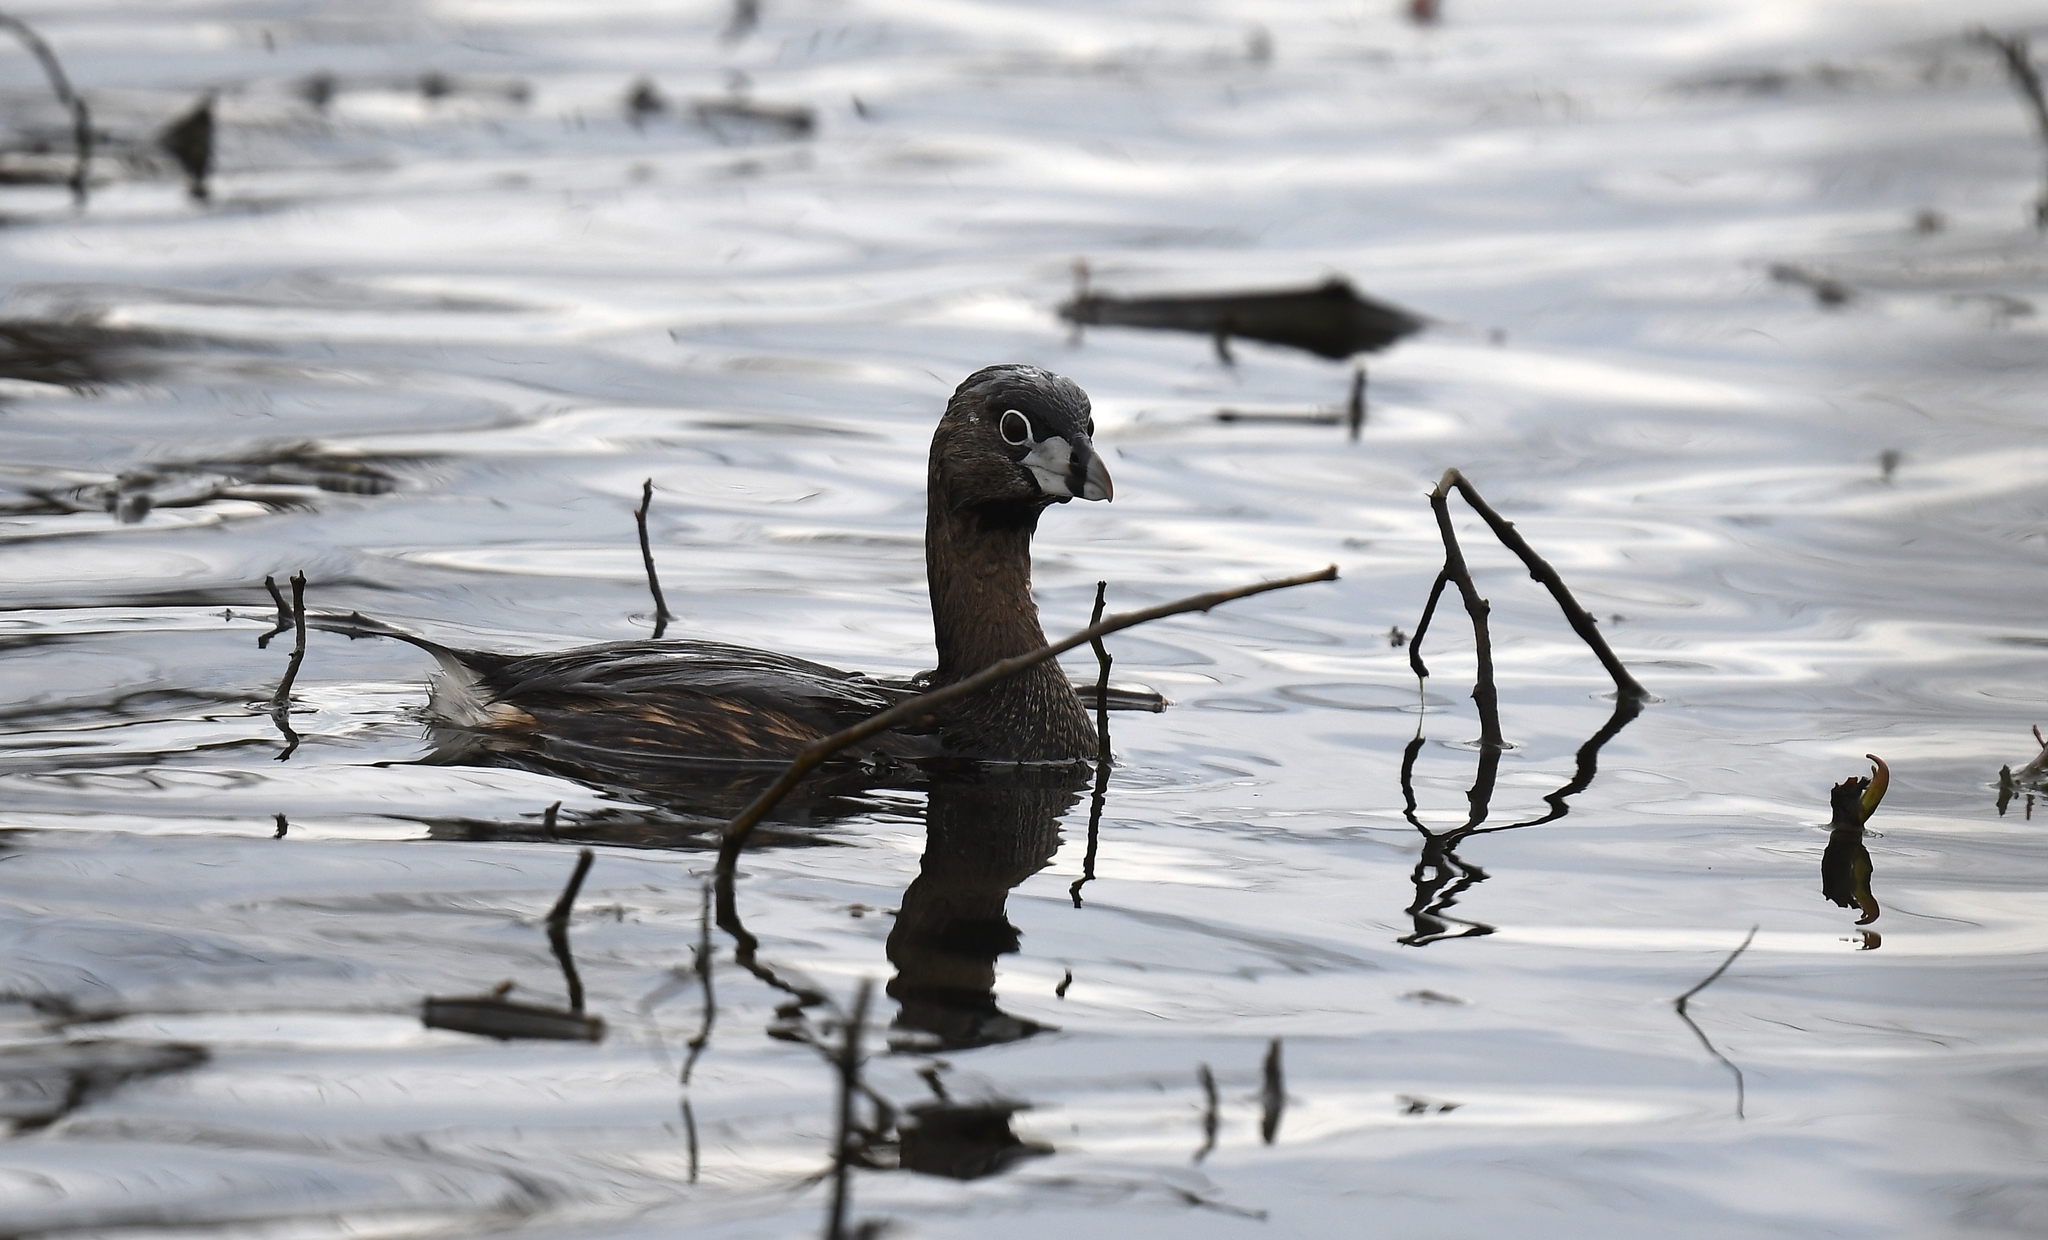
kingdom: Animalia
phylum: Chordata
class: Aves
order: Podicipediformes
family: Podicipedidae
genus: Podilymbus
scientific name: Podilymbus podiceps
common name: Pied-billed grebe
